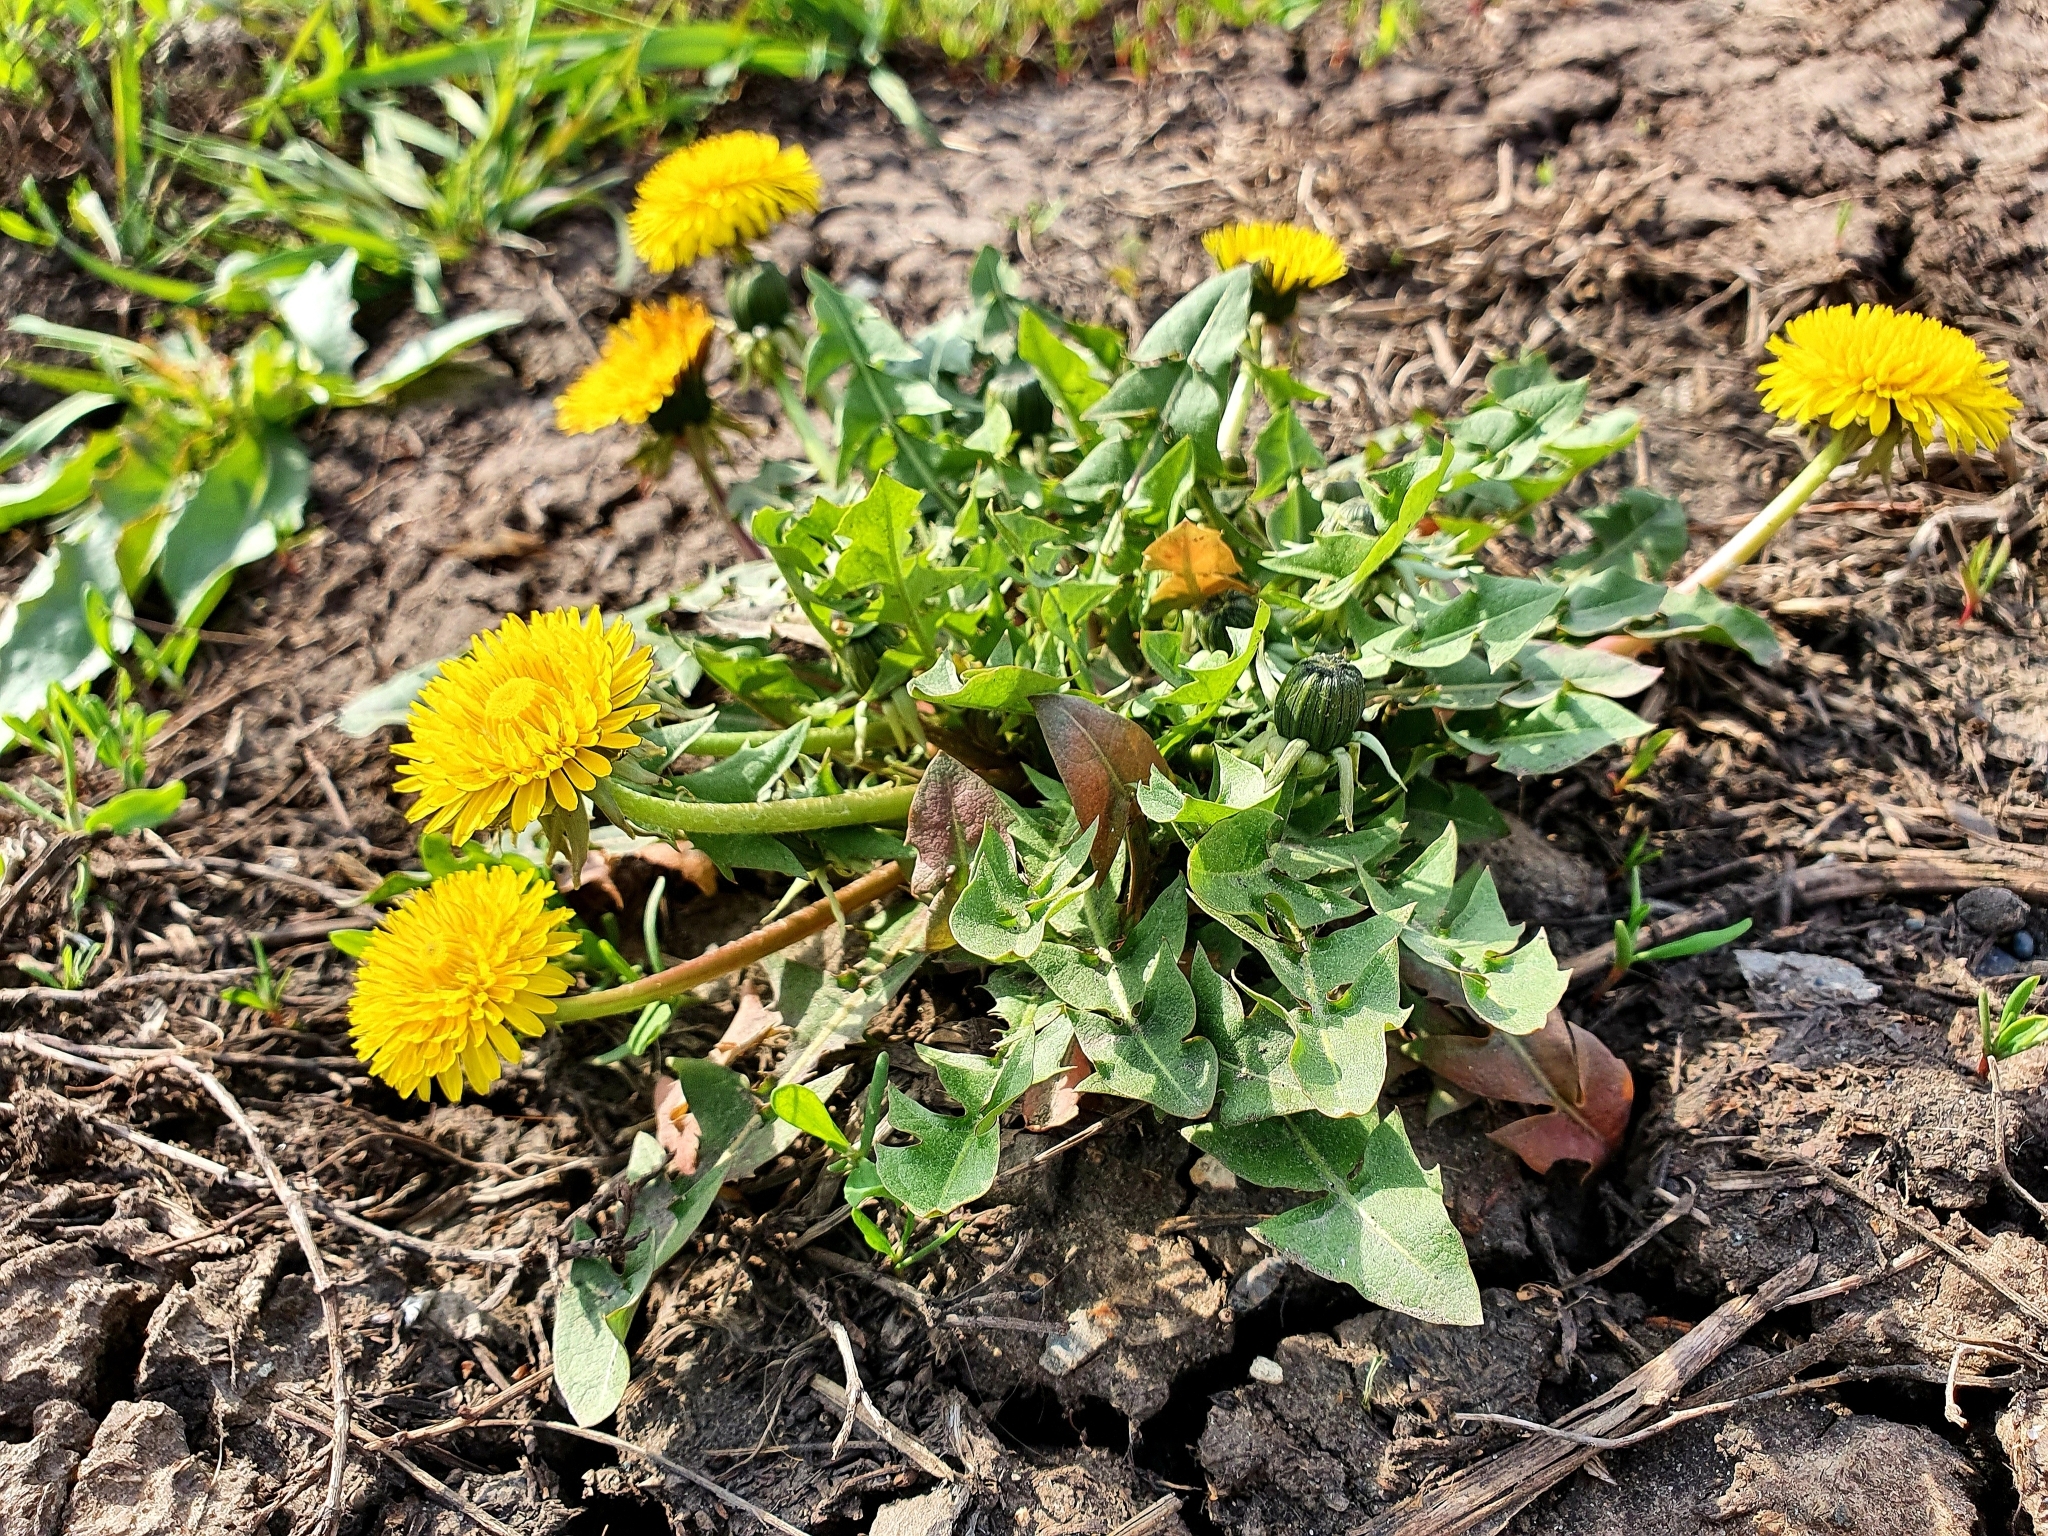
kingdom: Plantae
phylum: Tracheophyta
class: Magnoliopsida
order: Asterales
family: Asteraceae
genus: Taraxacum
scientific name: Taraxacum officinale
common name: Common dandelion
